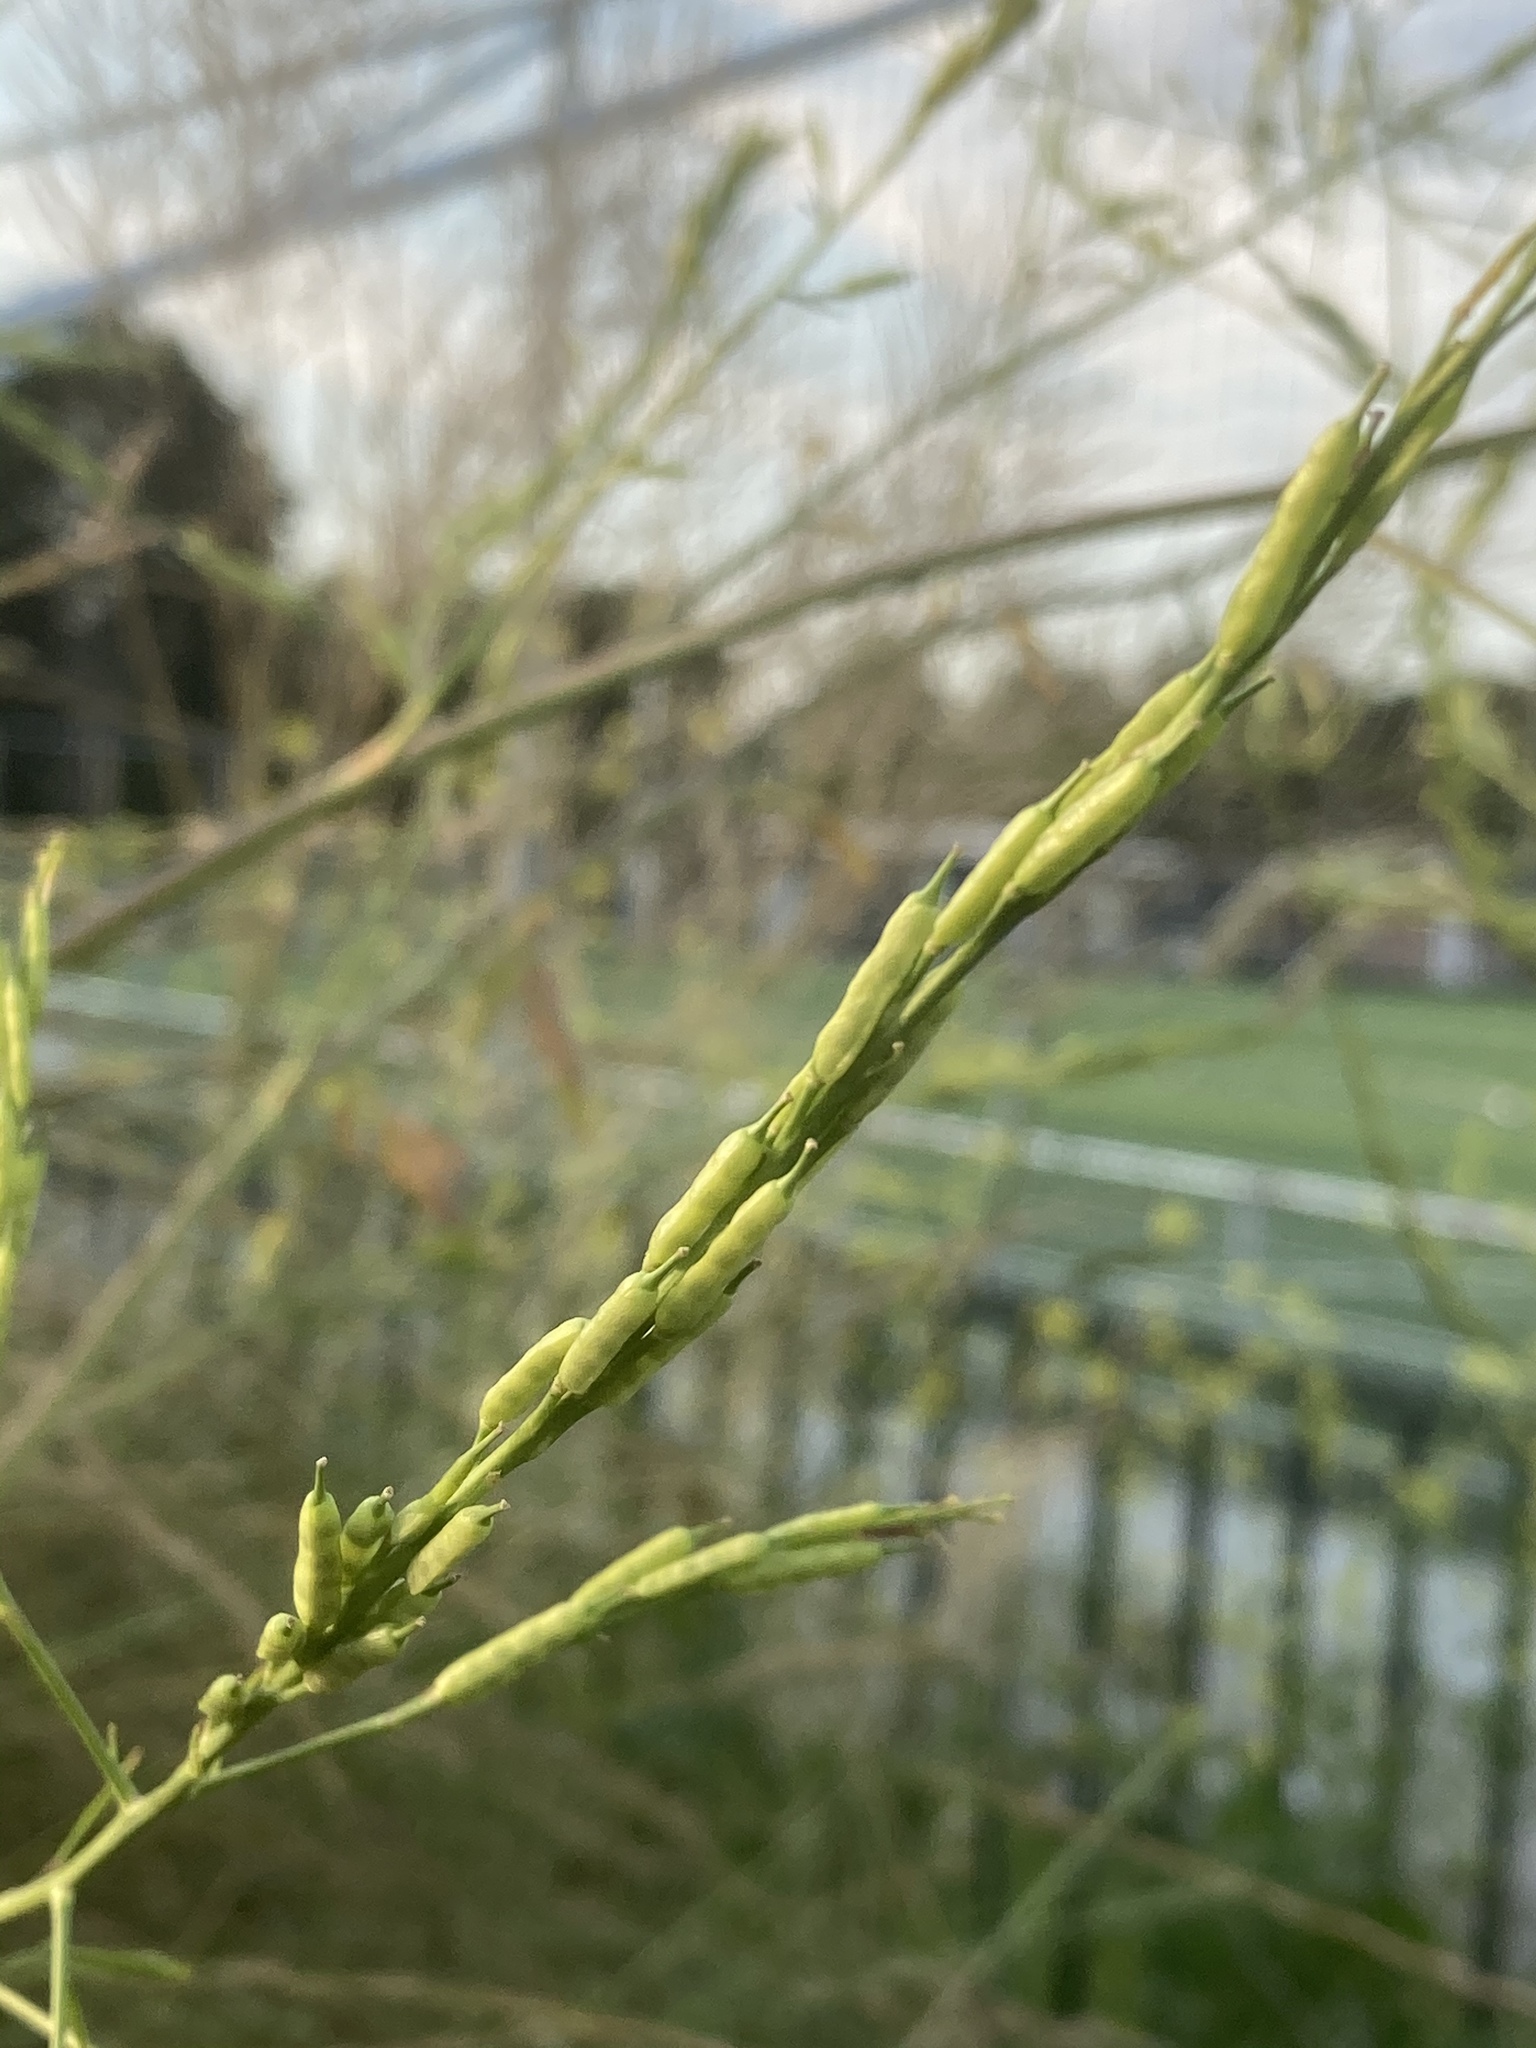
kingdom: Plantae
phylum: Tracheophyta
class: Magnoliopsida
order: Brassicales
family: Brassicaceae
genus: Brassica
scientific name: Brassica nigra
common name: Black mustard
